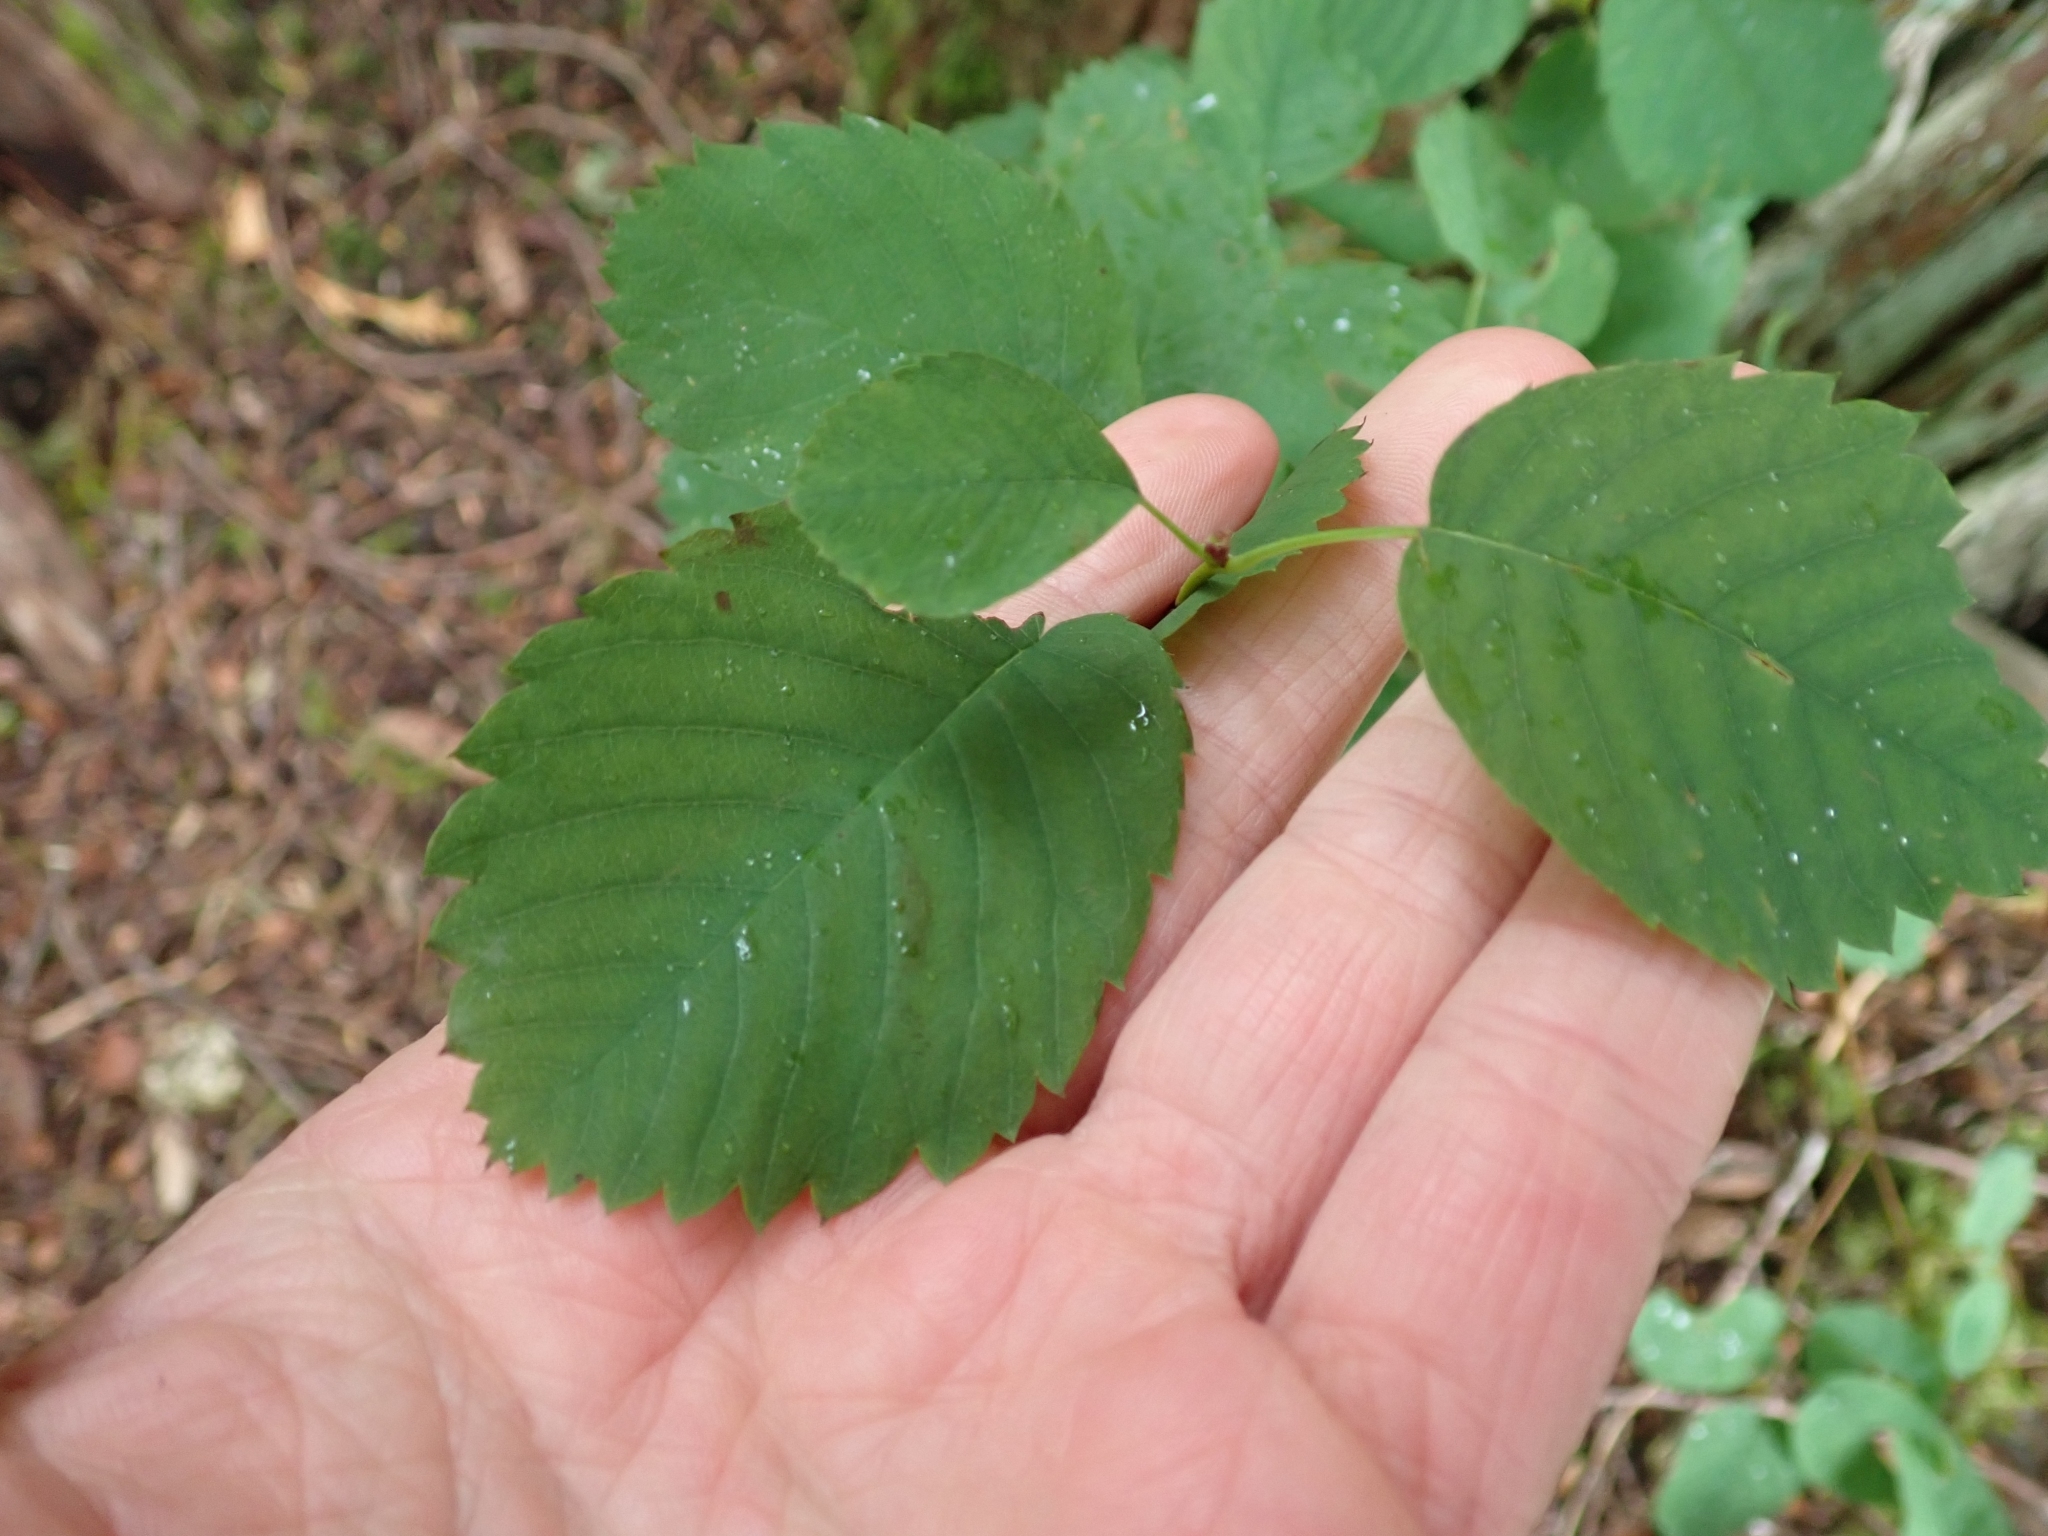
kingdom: Plantae
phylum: Tracheophyta
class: Magnoliopsida
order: Rosales
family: Rosaceae
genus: Amelanchier
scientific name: Amelanchier alnifolia
